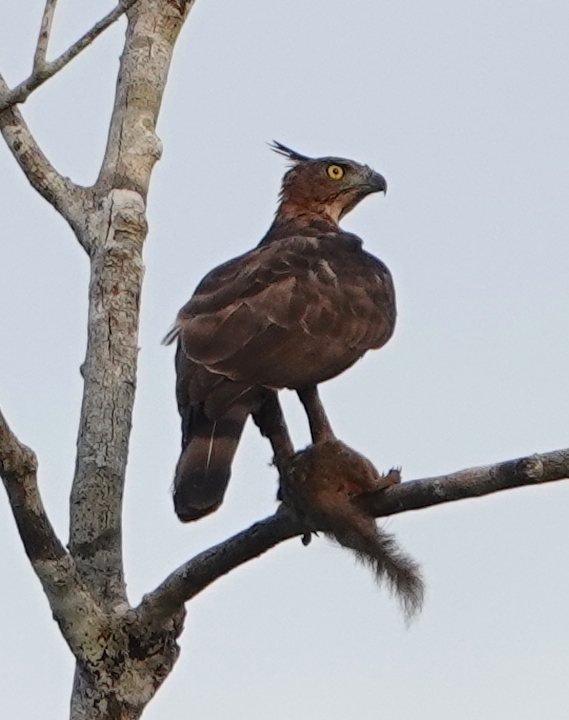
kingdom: Animalia
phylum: Chordata
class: Aves
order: Accipitriformes
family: Accipitridae
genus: Nisaetus
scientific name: Nisaetus nanus
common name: Wallace's hawk-eagle
